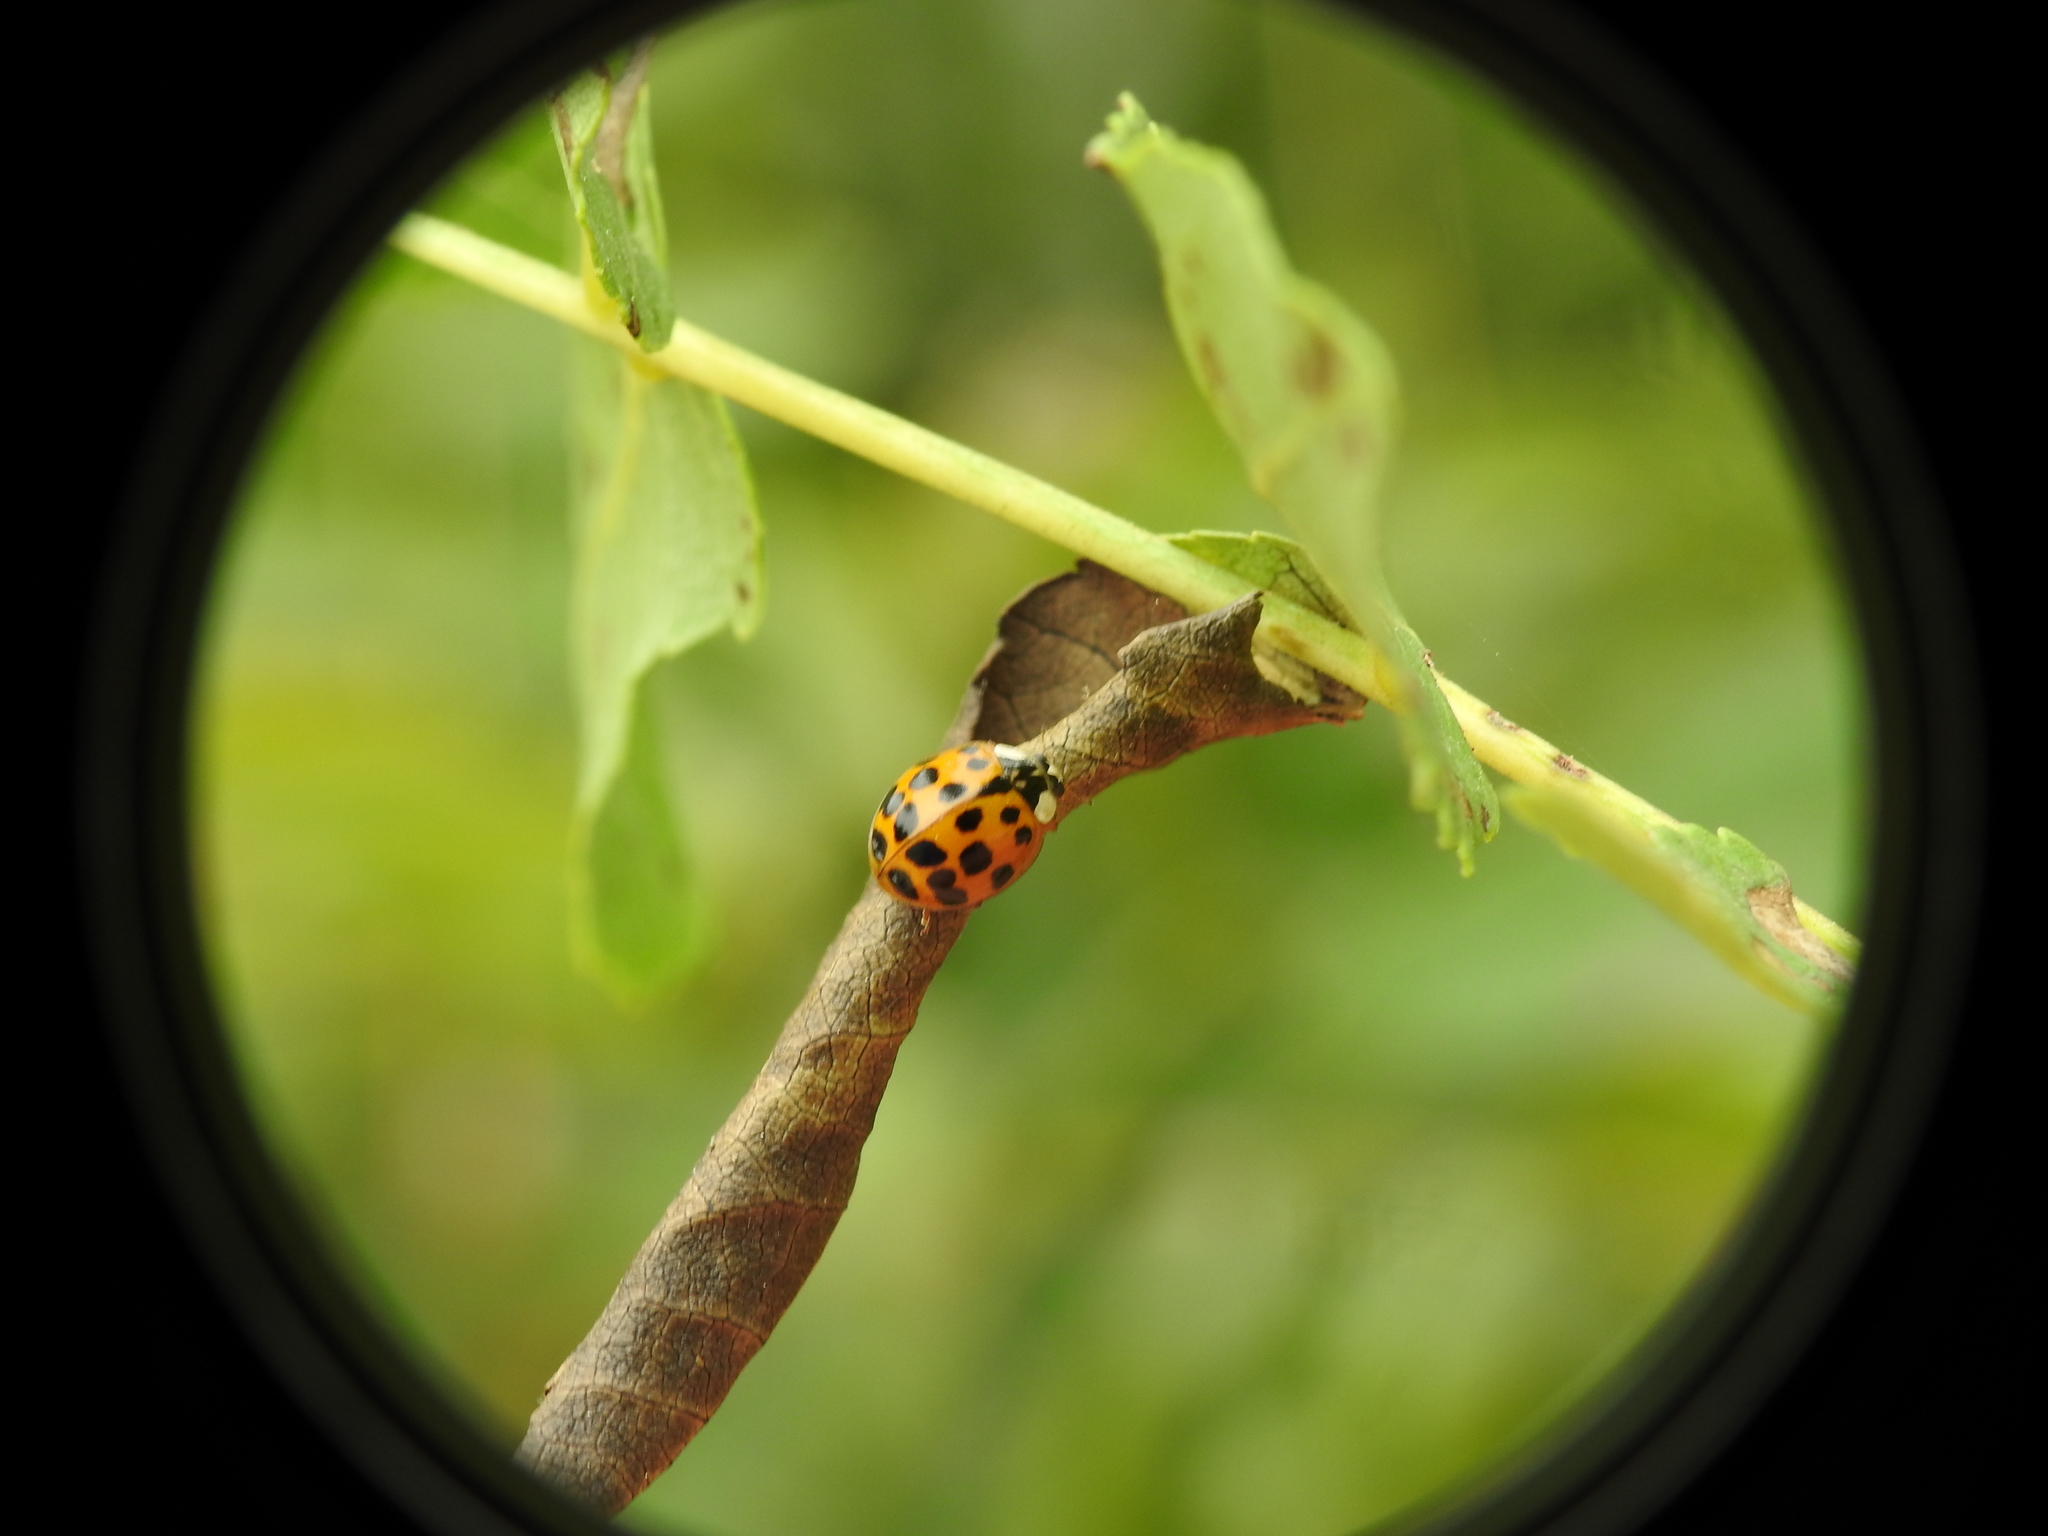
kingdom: Animalia
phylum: Arthropoda
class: Insecta
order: Coleoptera
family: Coccinellidae
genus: Harmonia
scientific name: Harmonia axyridis
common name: Harlequin ladybird
